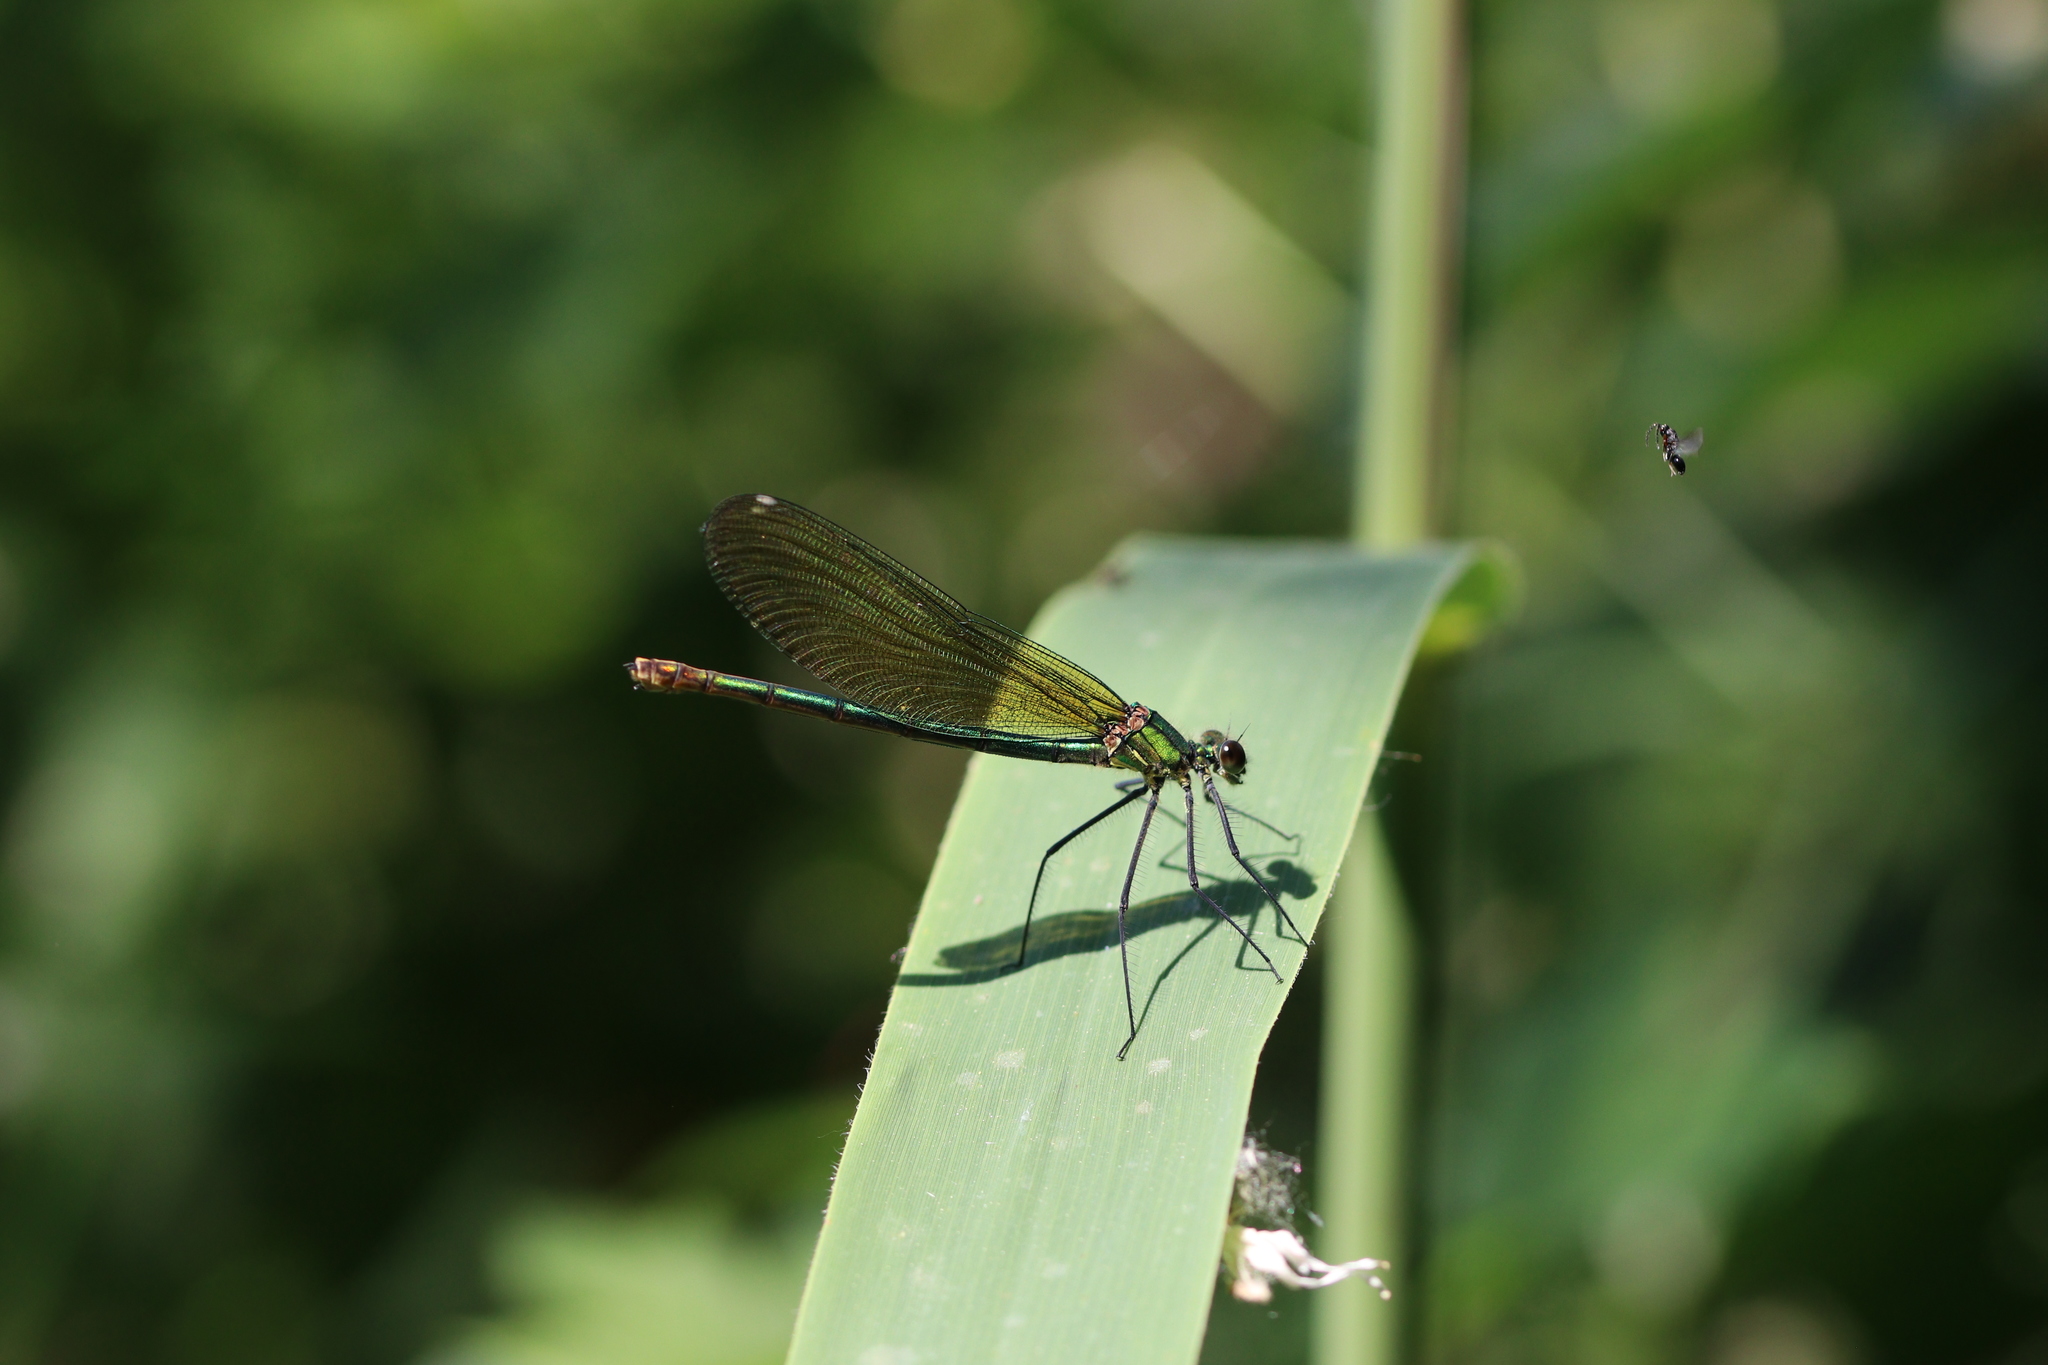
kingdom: Animalia
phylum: Arthropoda
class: Insecta
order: Odonata
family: Calopterygidae
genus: Calopteryx
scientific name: Calopteryx splendens
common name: Banded demoiselle
